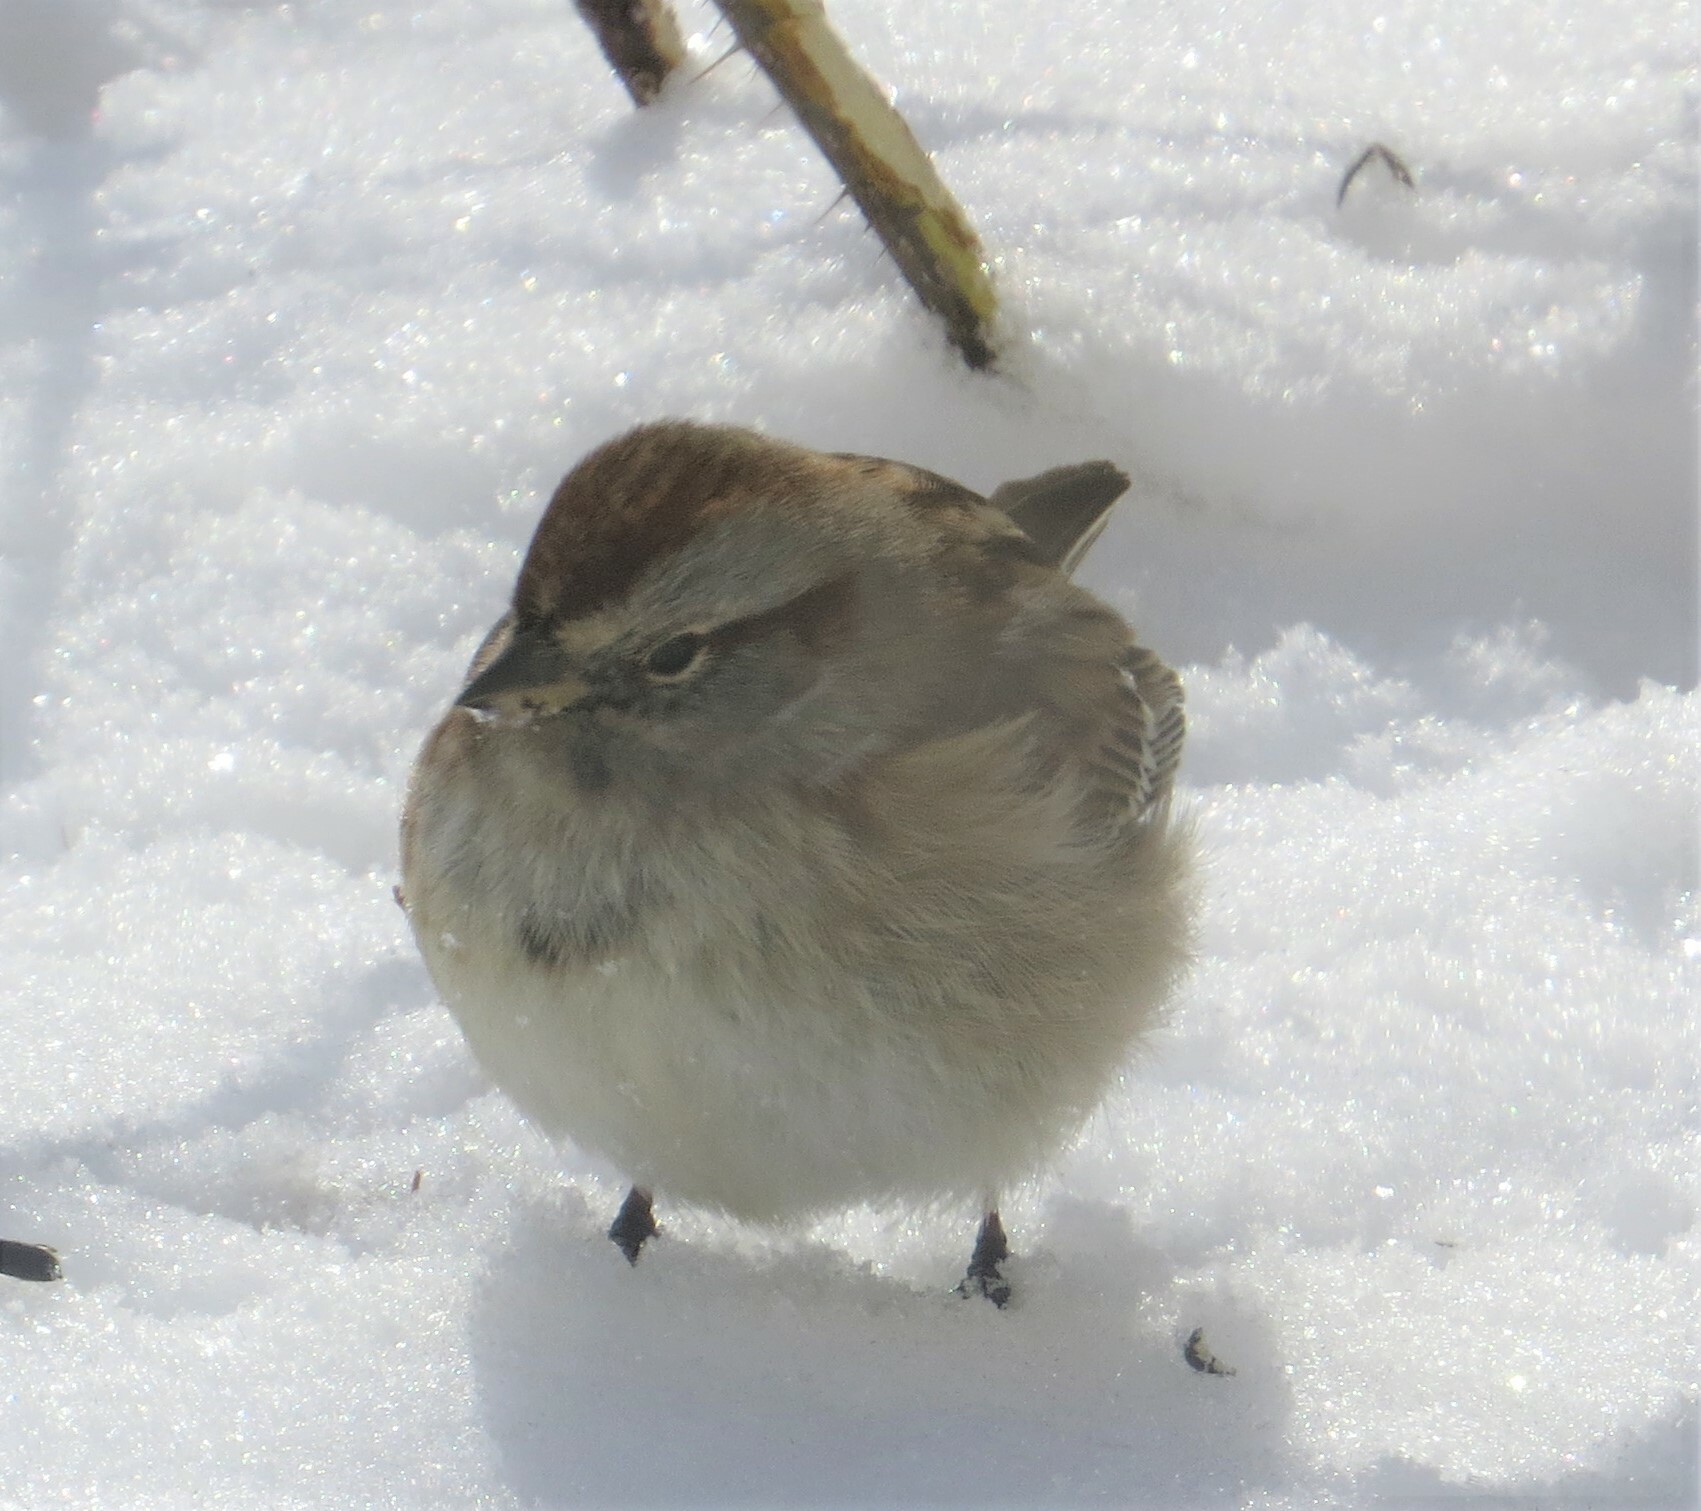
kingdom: Animalia
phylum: Chordata
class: Aves
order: Passeriformes
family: Passerellidae
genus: Spizelloides
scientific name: Spizelloides arborea
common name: American tree sparrow
